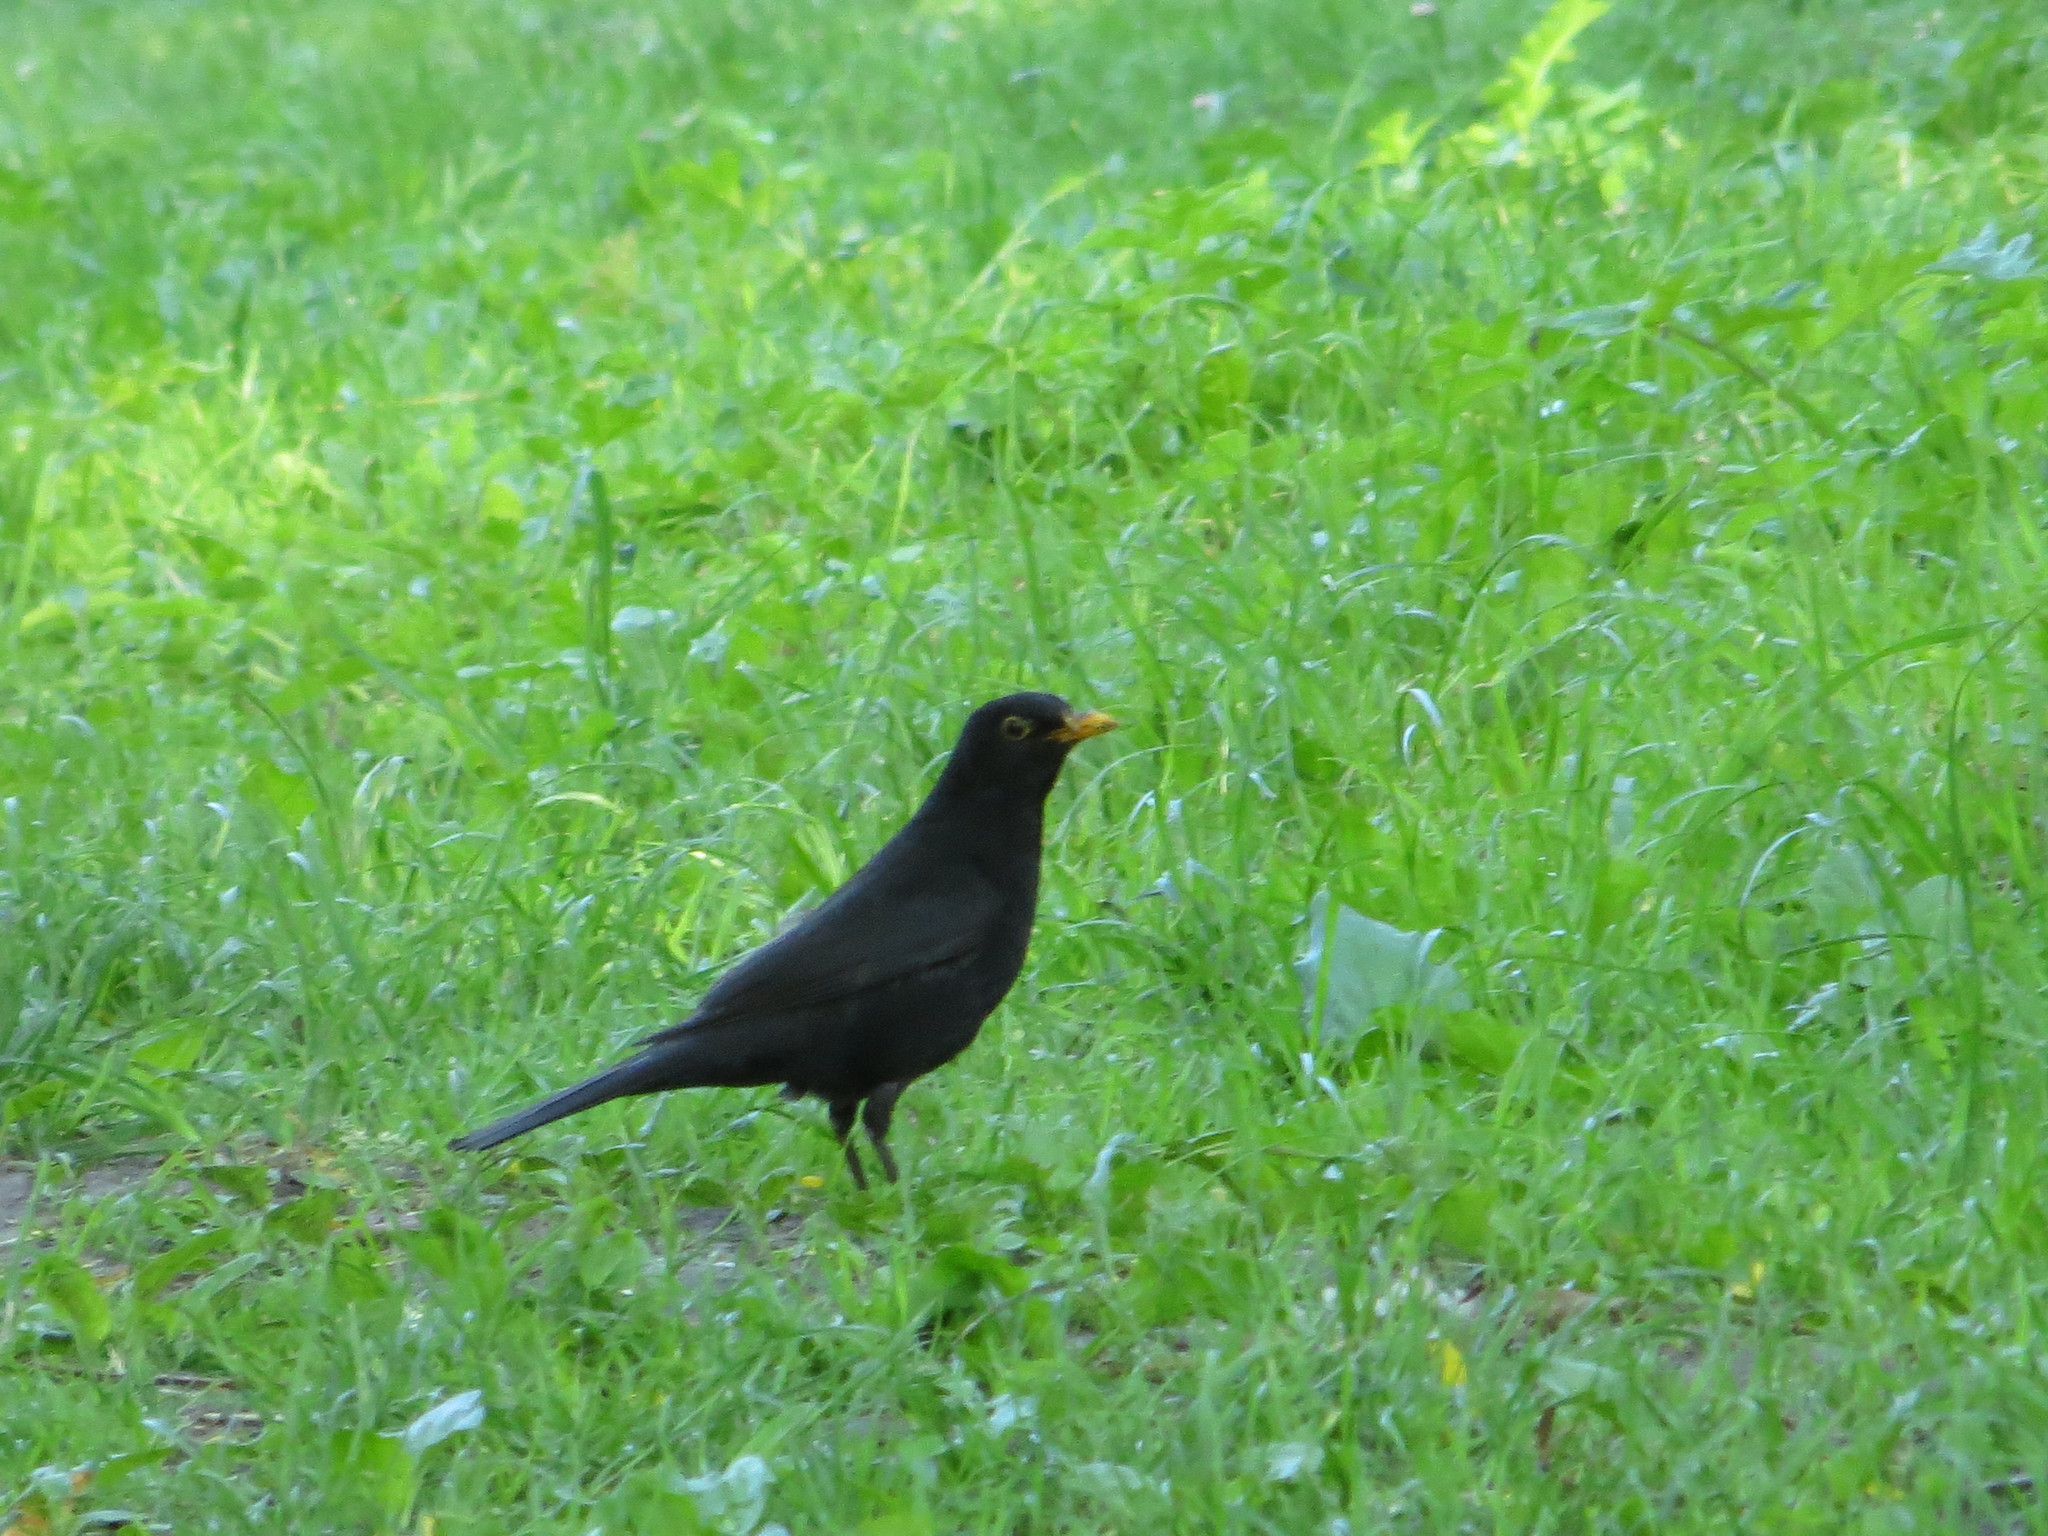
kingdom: Animalia
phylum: Chordata
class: Aves
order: Passeriformes
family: Turdidae
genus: Turdus
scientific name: Turdus merula
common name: Common blackbird
